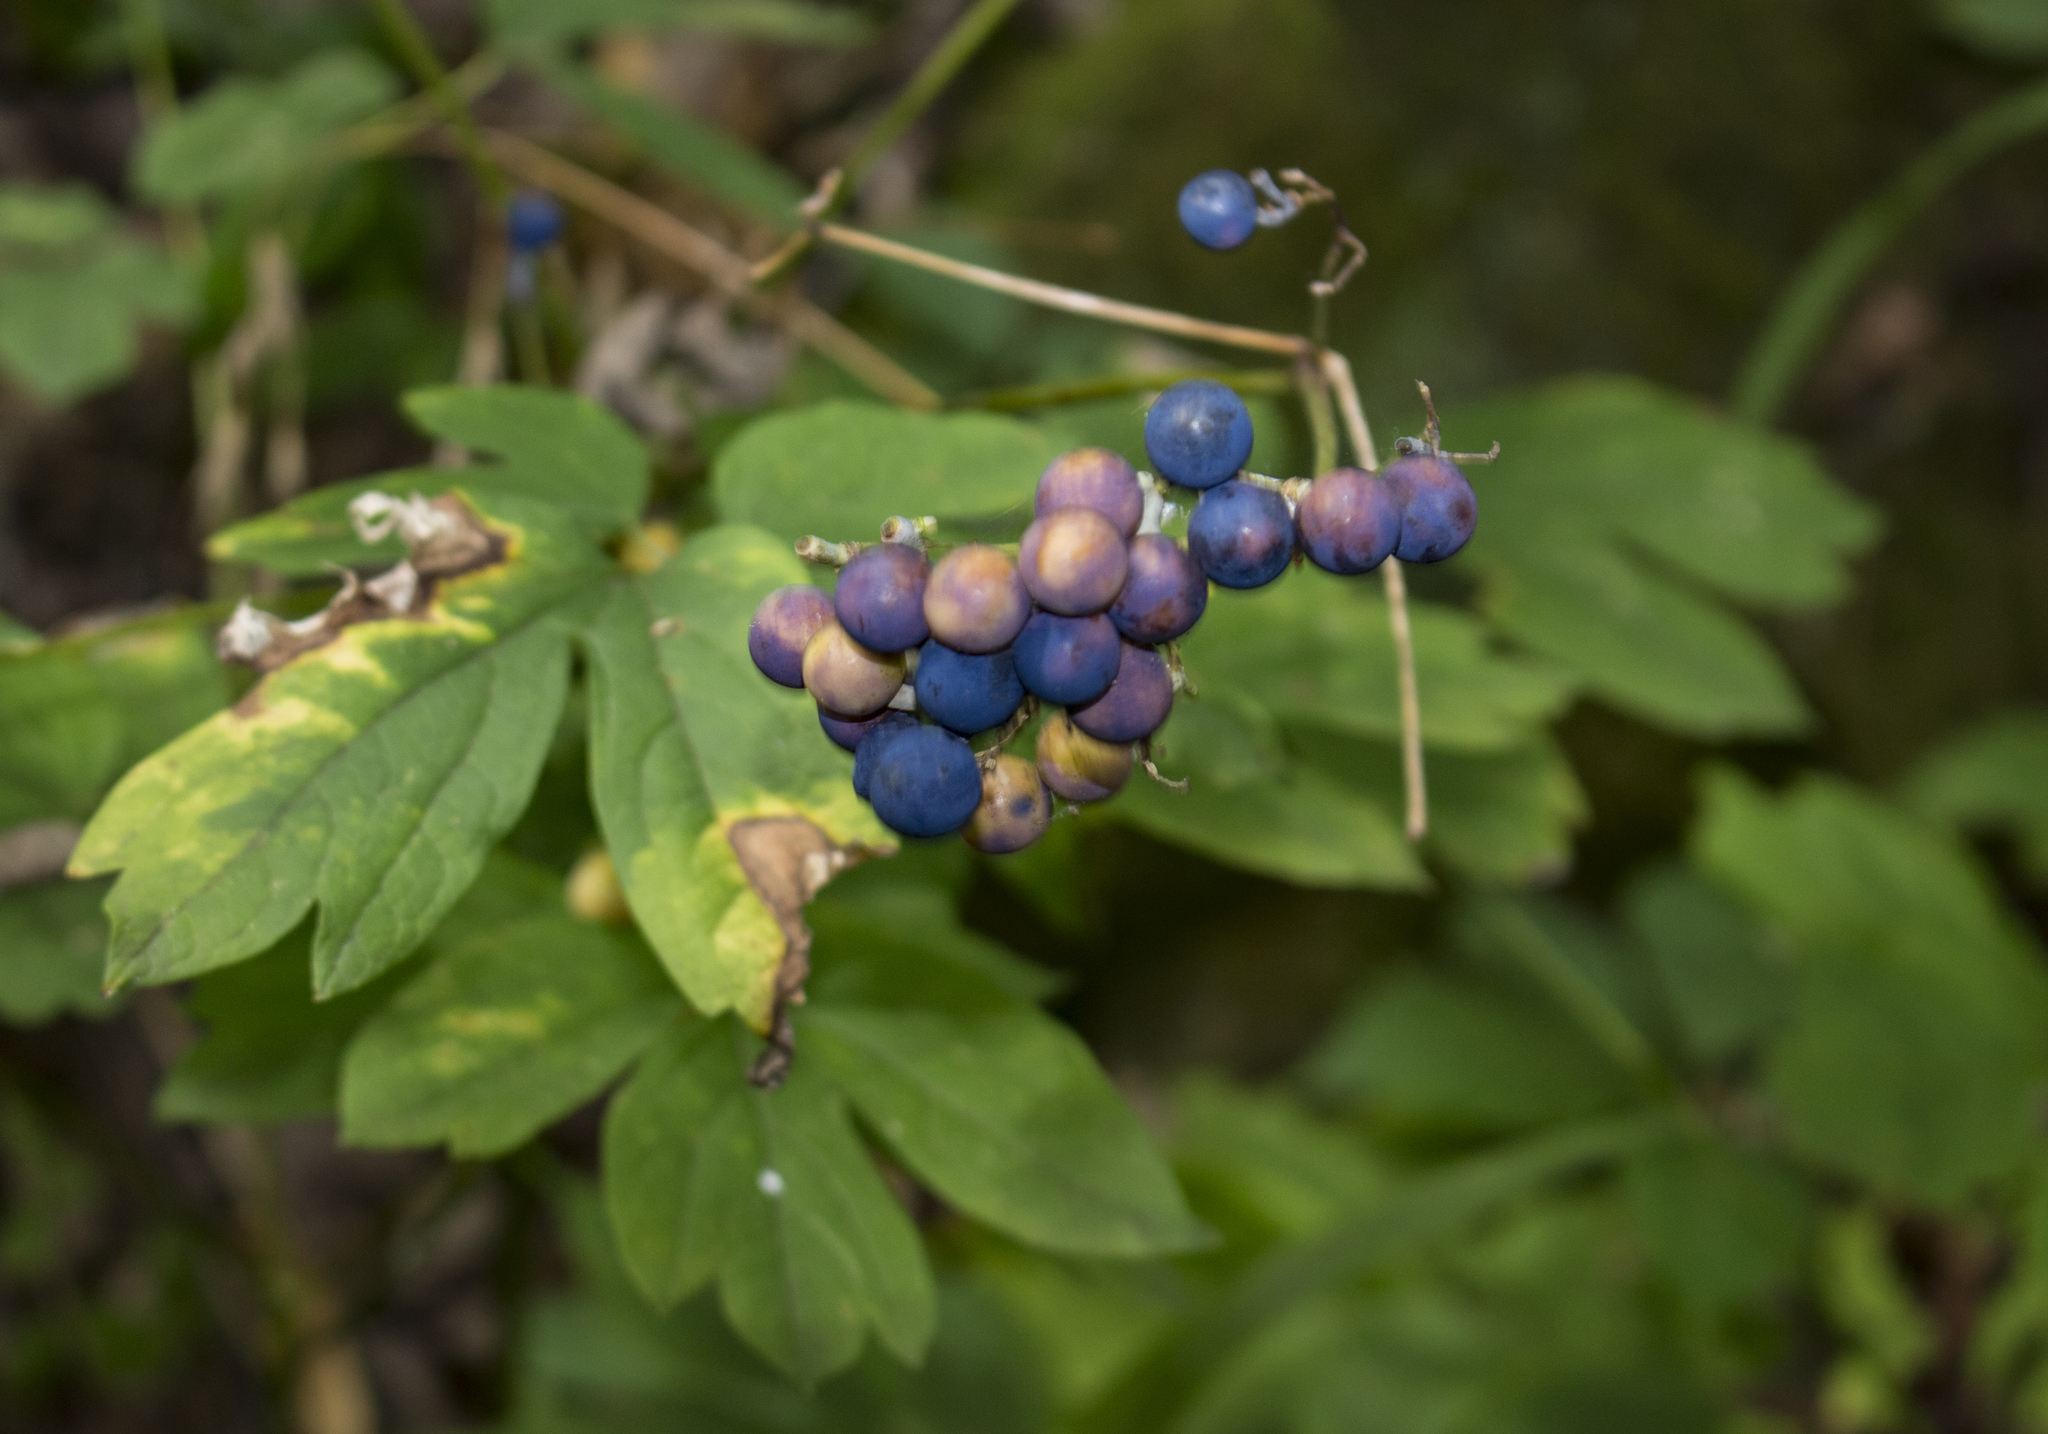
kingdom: Plantae
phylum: Tracheophyta
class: Magnoliopsida
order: Ranunculales
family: Berberidaceae
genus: Caulophyllum
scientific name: Caulophyllum thalictroides
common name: Blue cohosh
